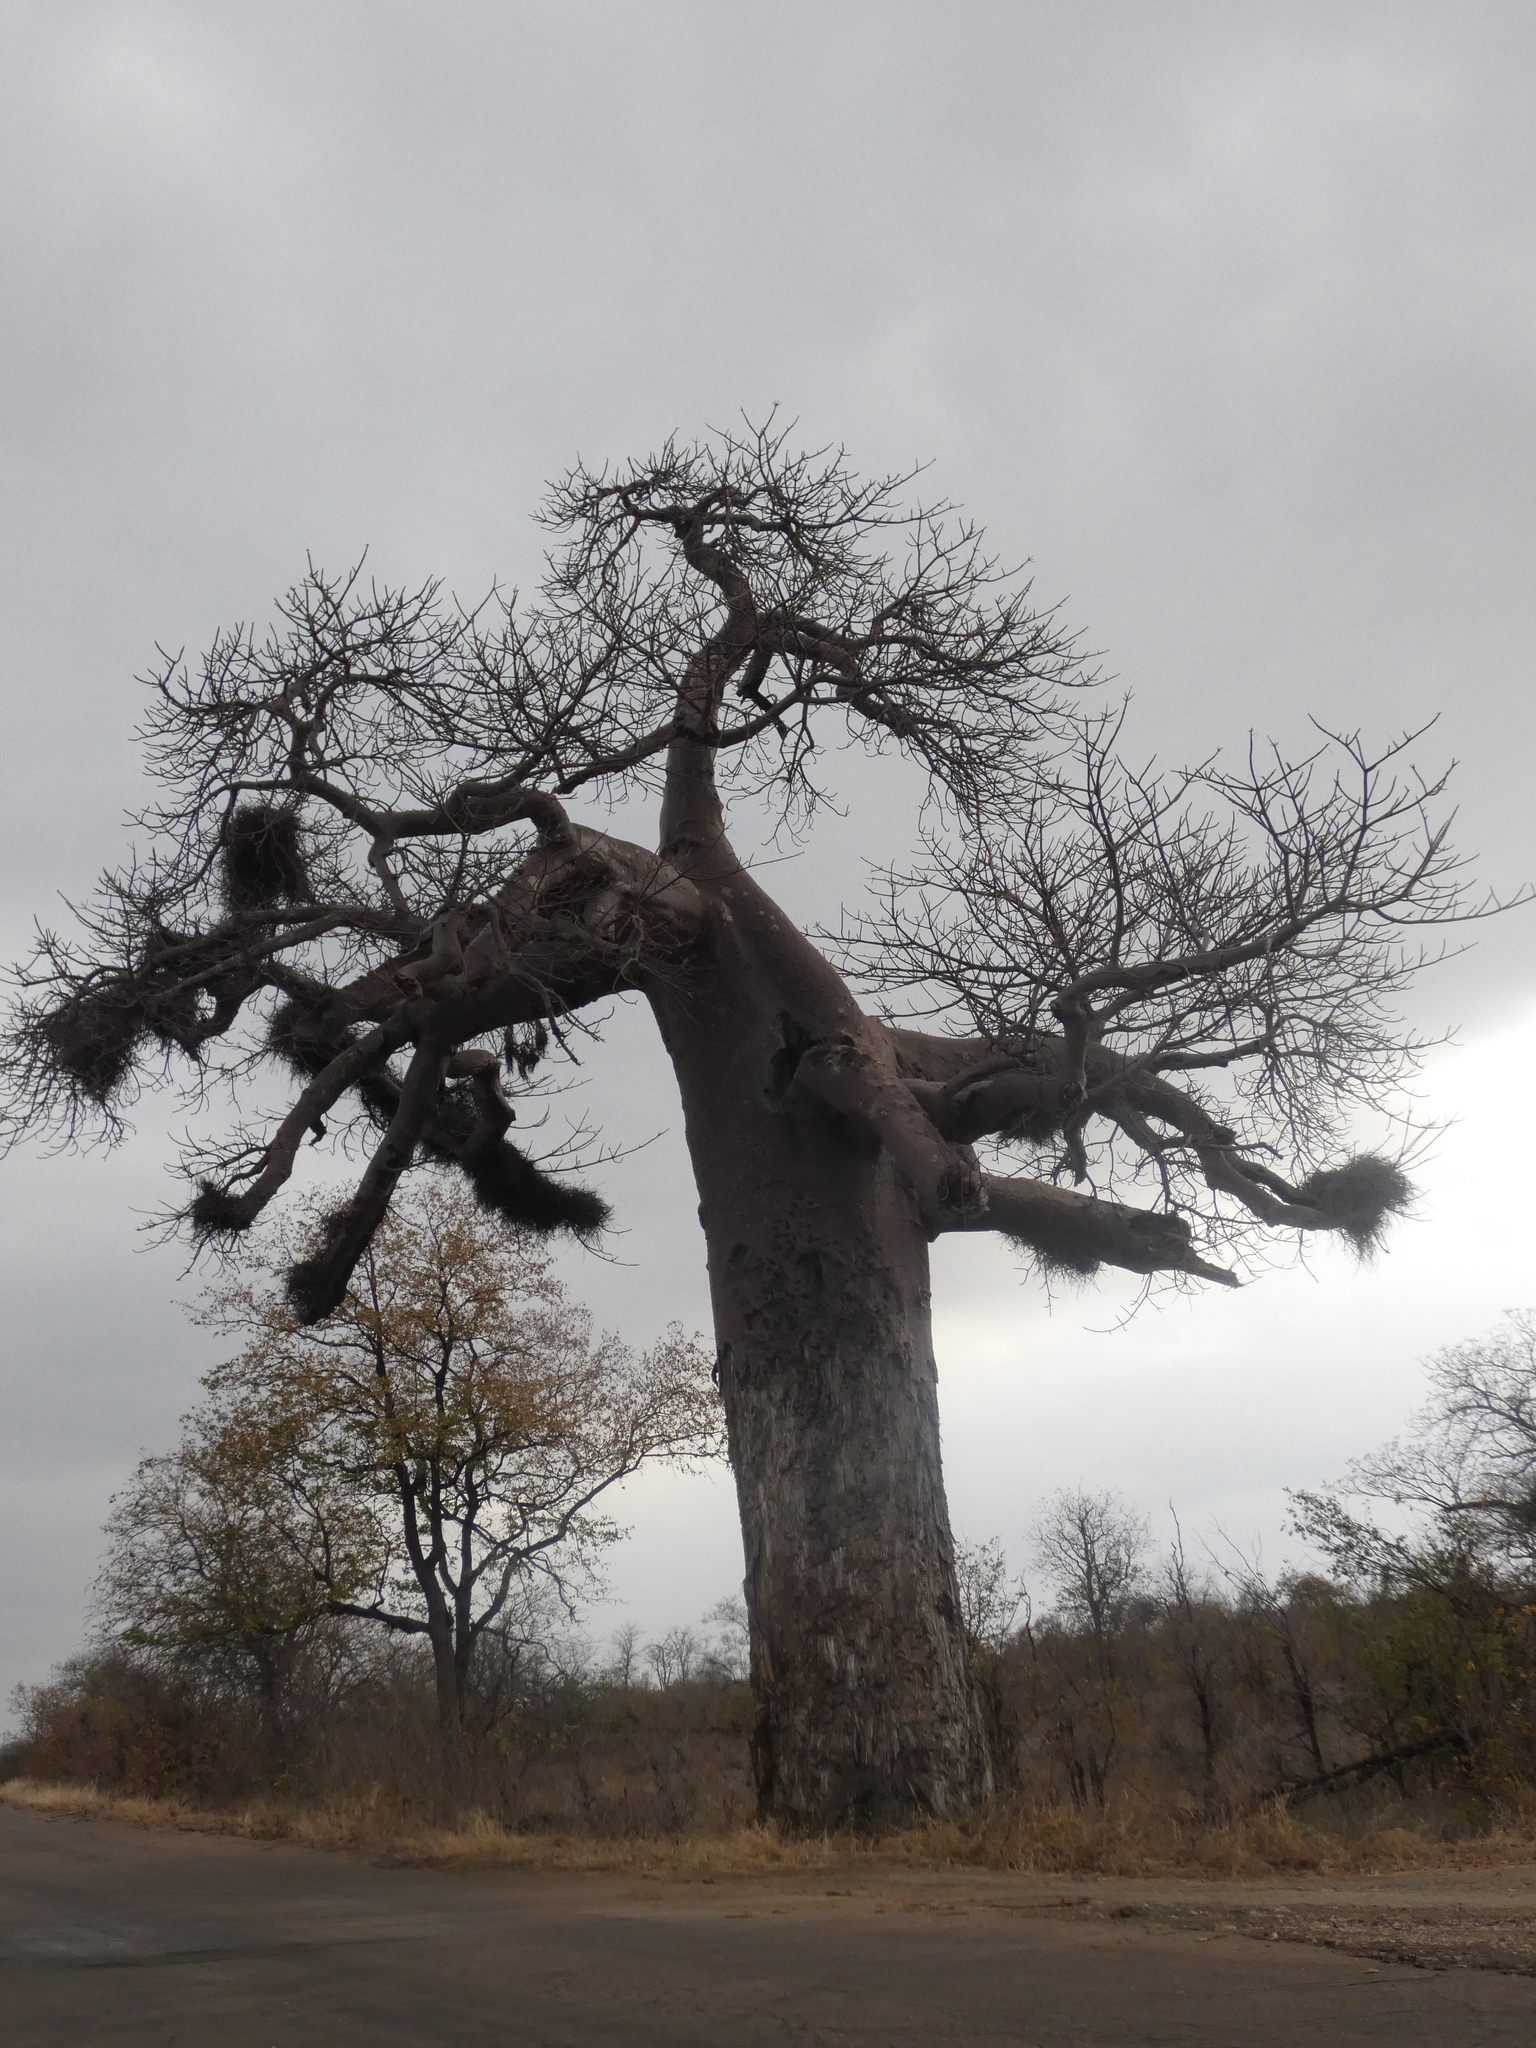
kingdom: Plantae
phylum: Tracheophyta
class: Magnoliopsida
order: Malvales
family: Malvaceae
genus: Adansonia
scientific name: Adansonia digitata
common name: Dead-rat-tree
